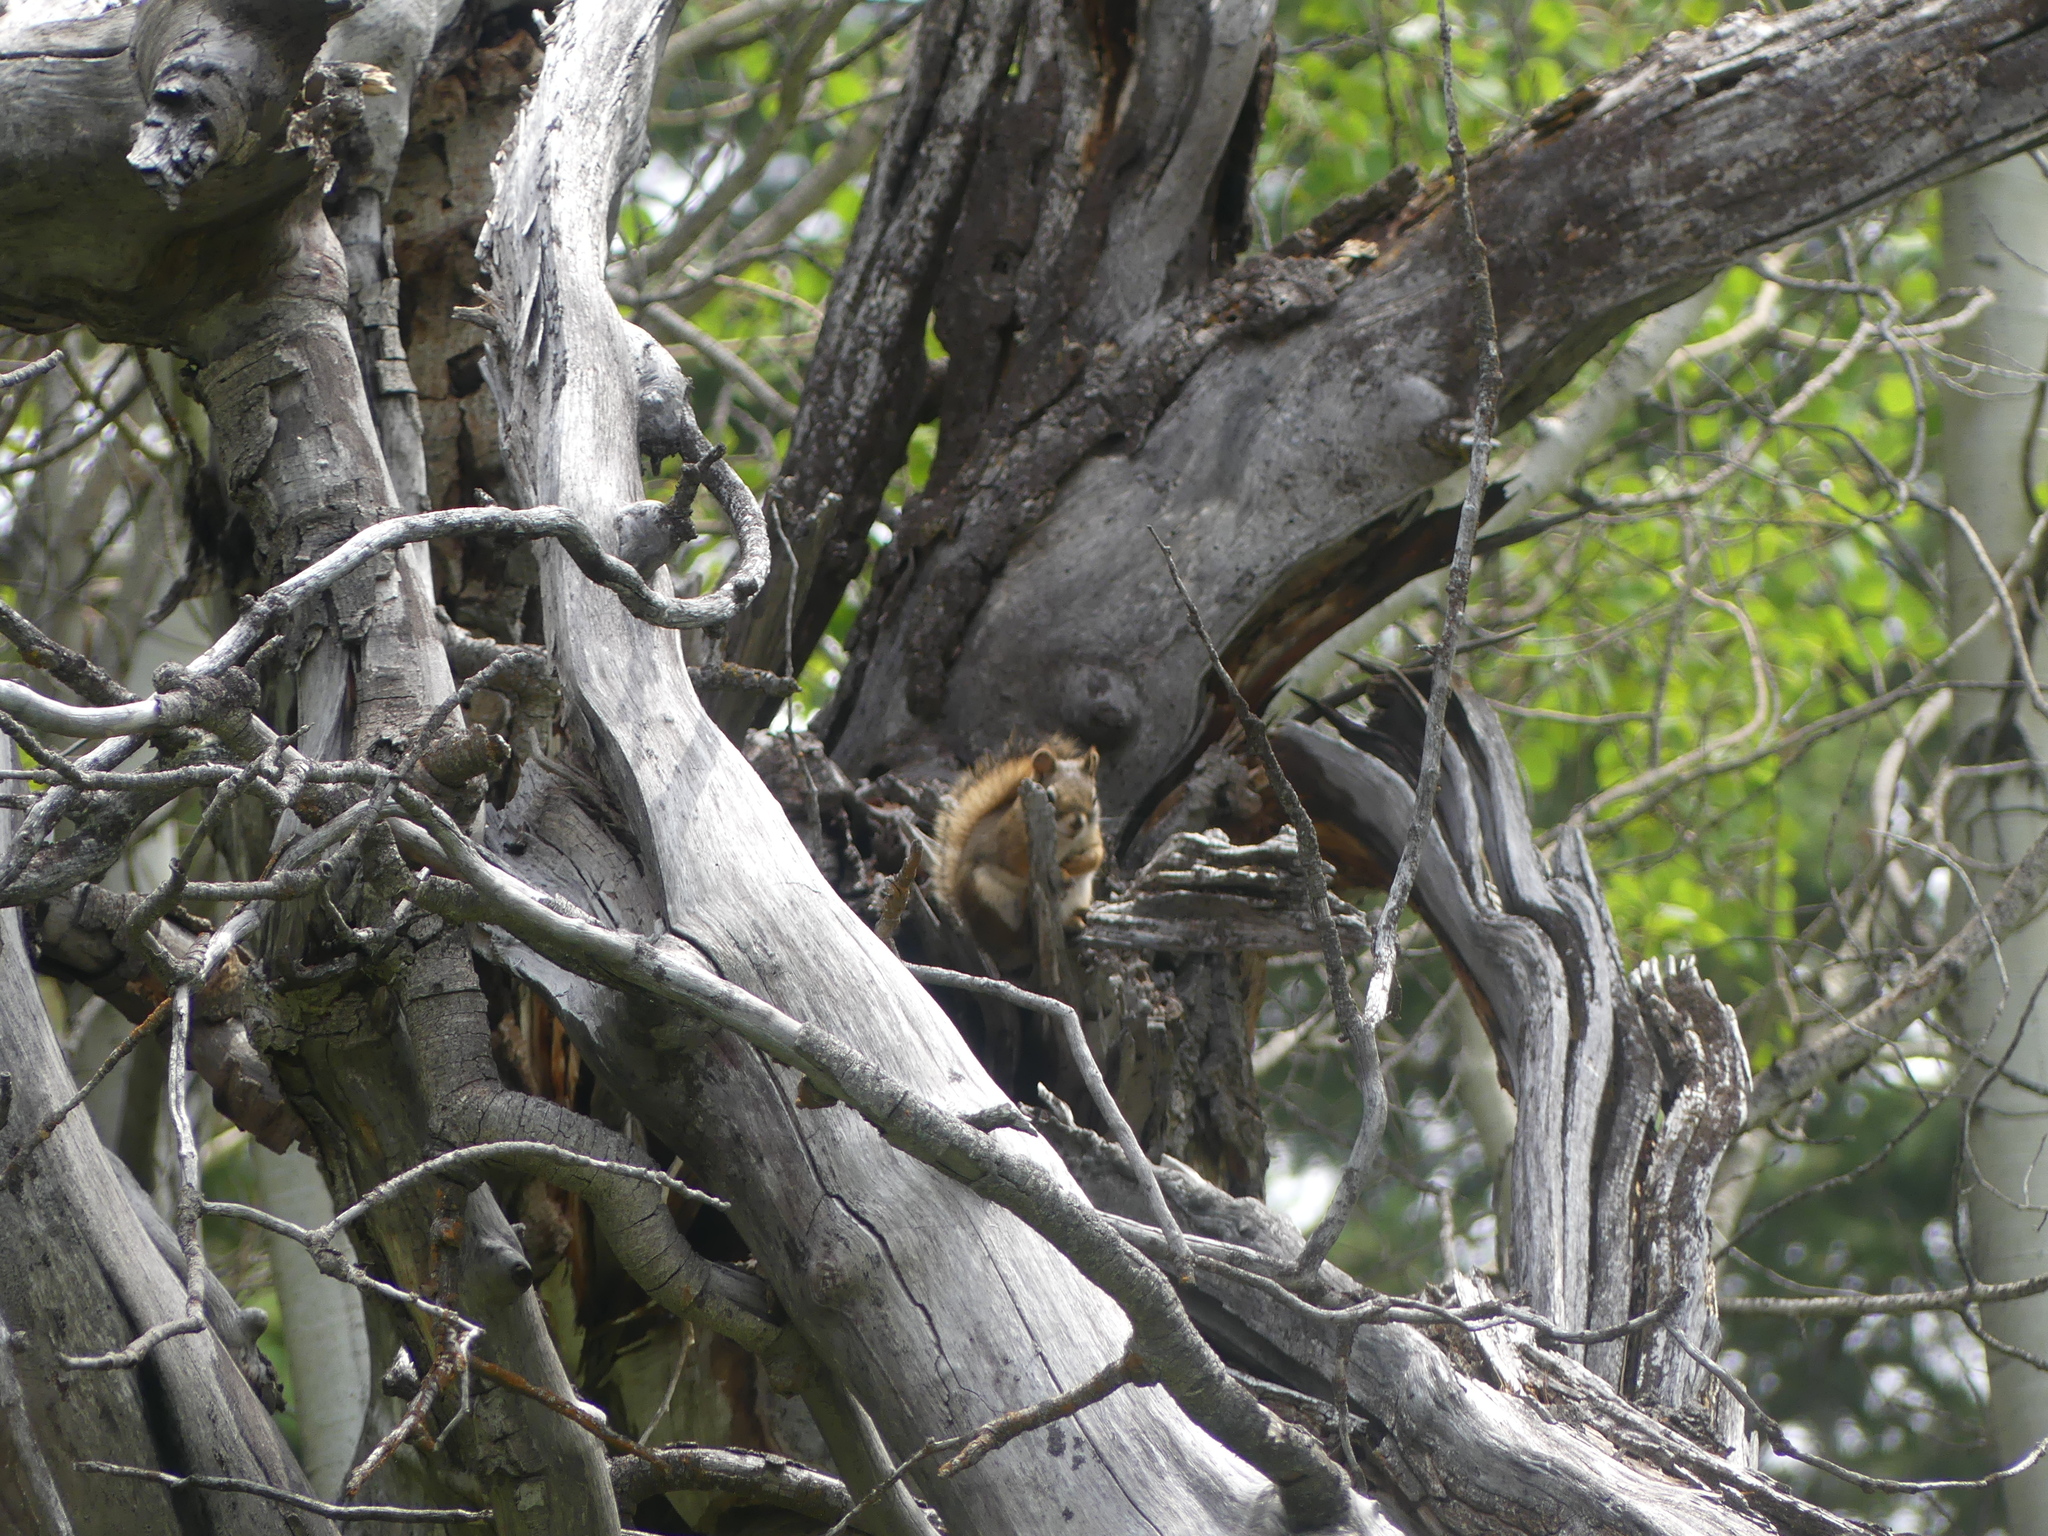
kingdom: Animalia
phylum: Chordata
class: Mammalia
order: Rodentia
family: Sciuridae
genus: Tamiasciurus
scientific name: Tamiasciurus hudsonicus
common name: Red squirrel
